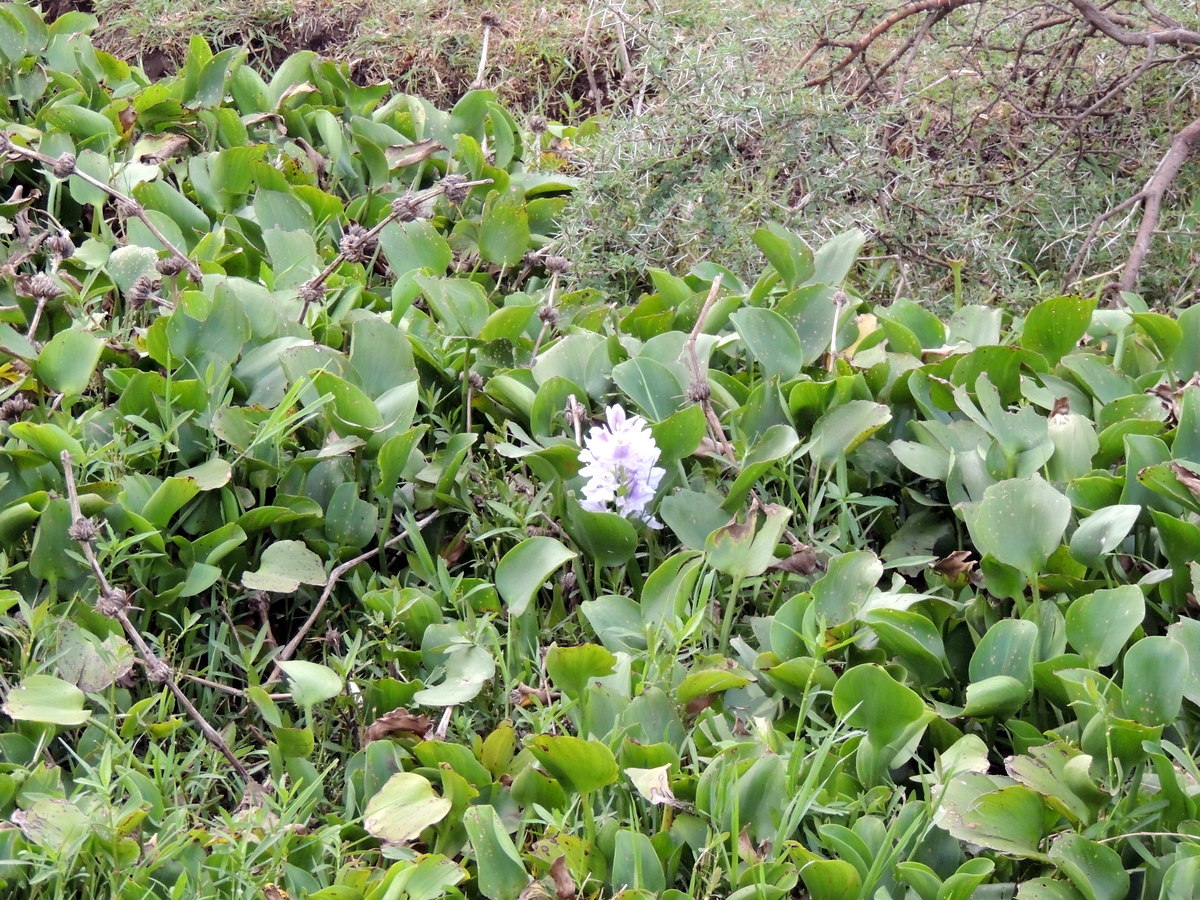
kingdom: Plantae
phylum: Tracheophyta
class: Liliopsida
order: Commelinales
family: Pontederiaceae
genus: Pontederia
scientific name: Pontederia crassipes
